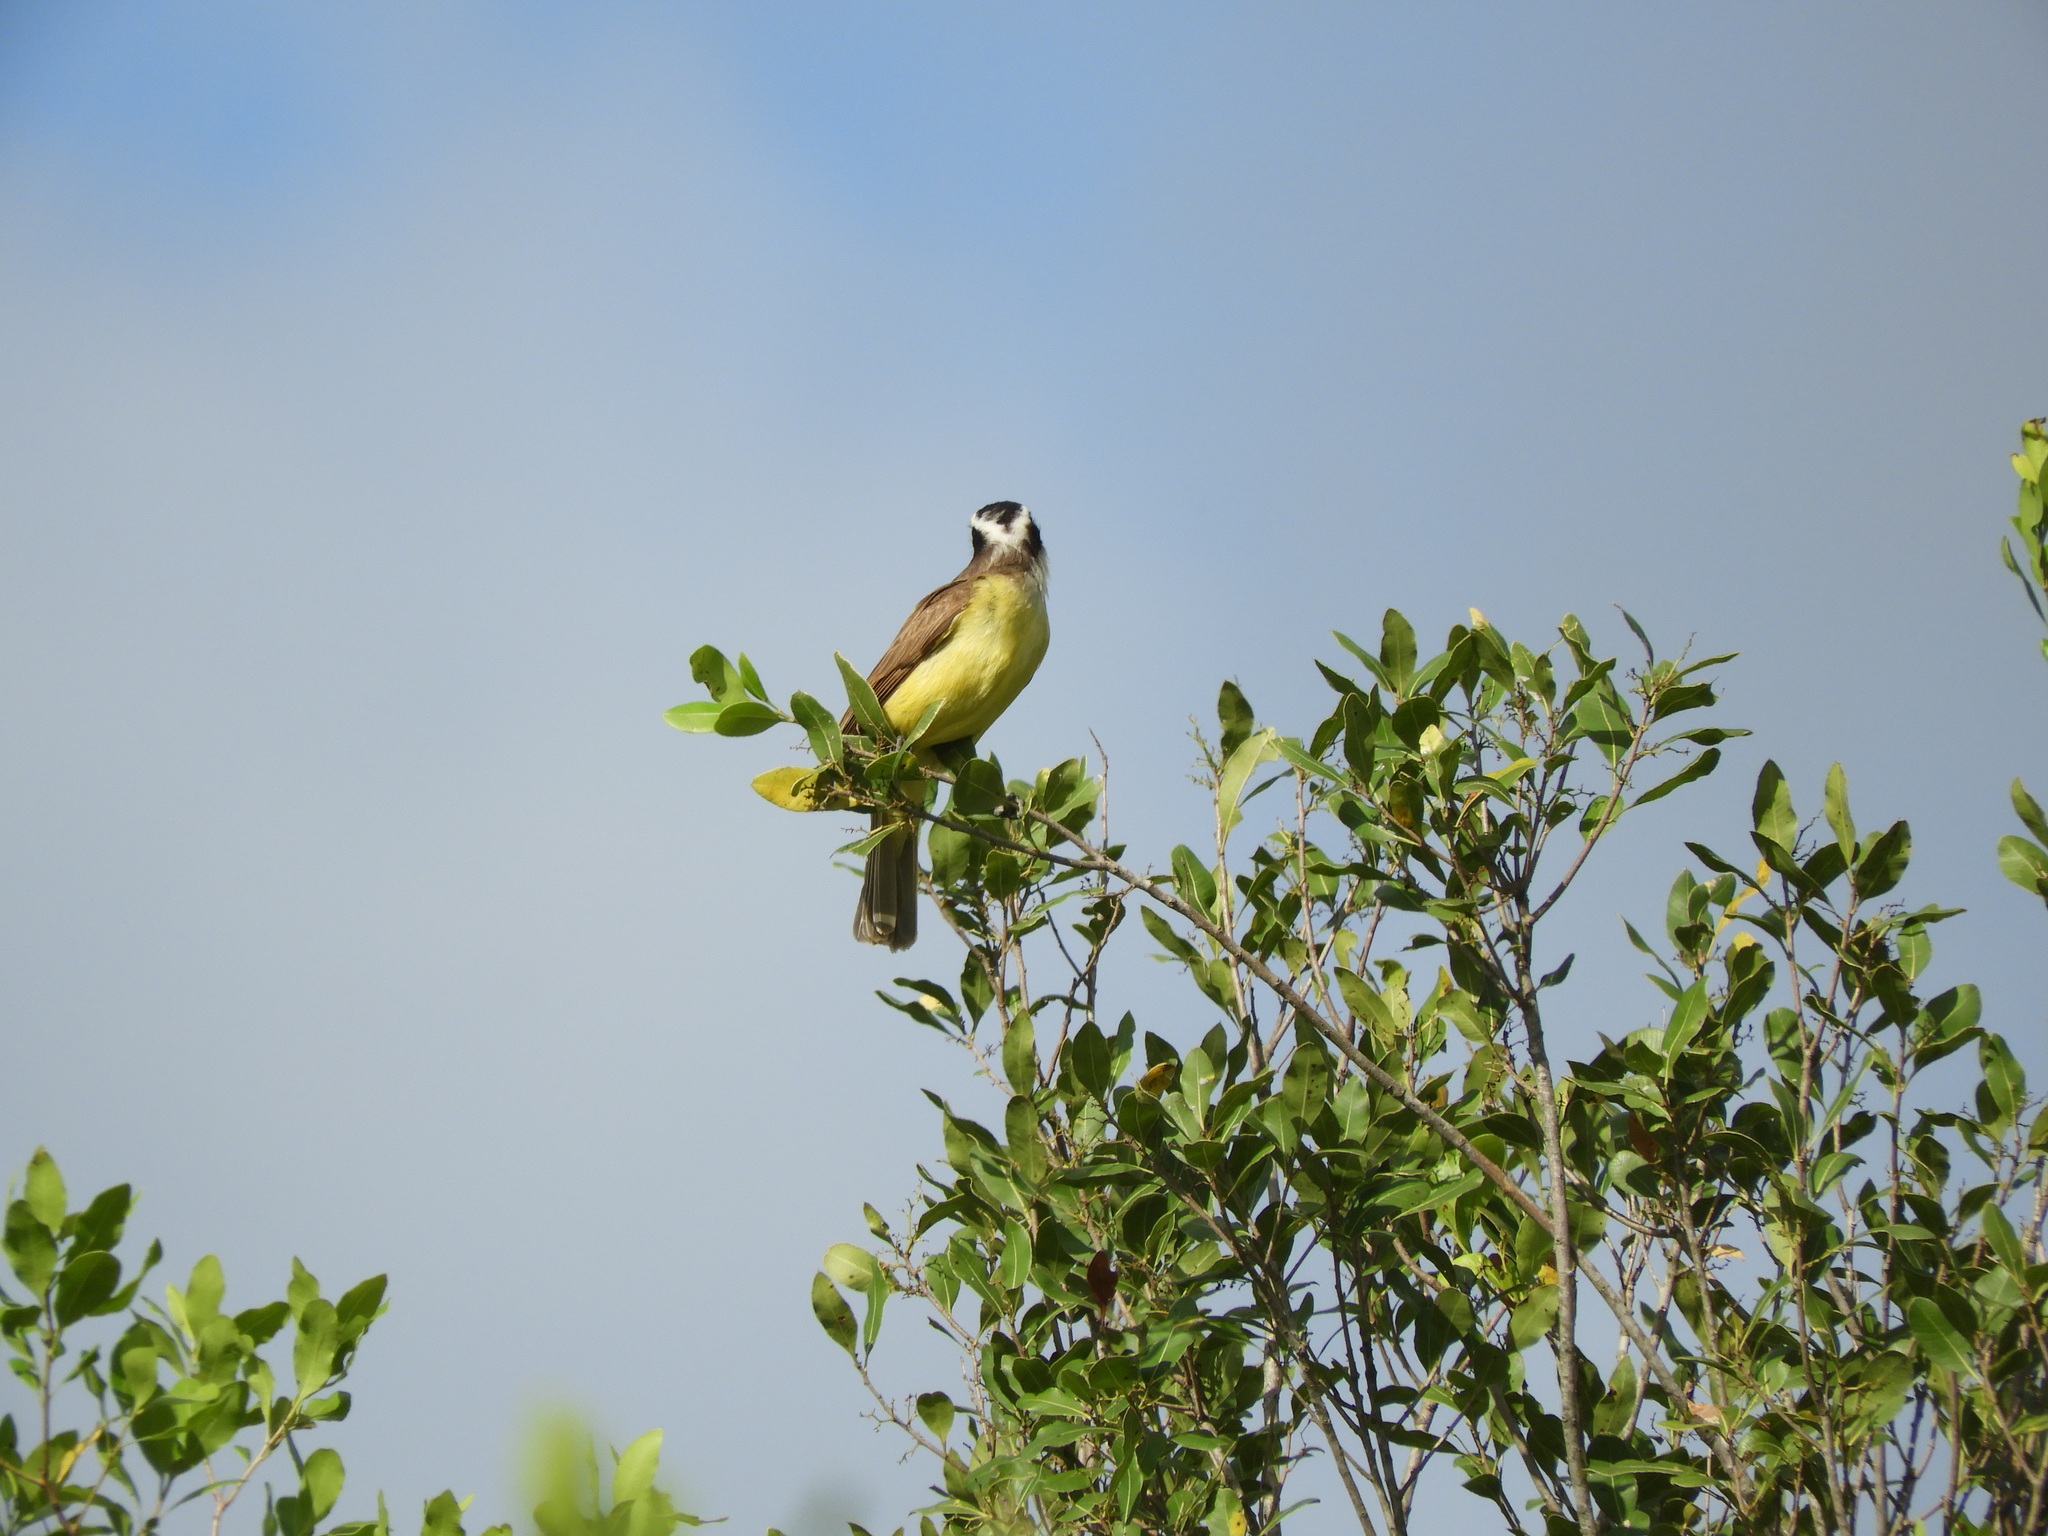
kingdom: Animalia
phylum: Chordata
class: Aves
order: Passeriformes
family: Tyrannidae
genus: Pitangus
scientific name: Pitangus sulphuratus
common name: Great kiskadee
